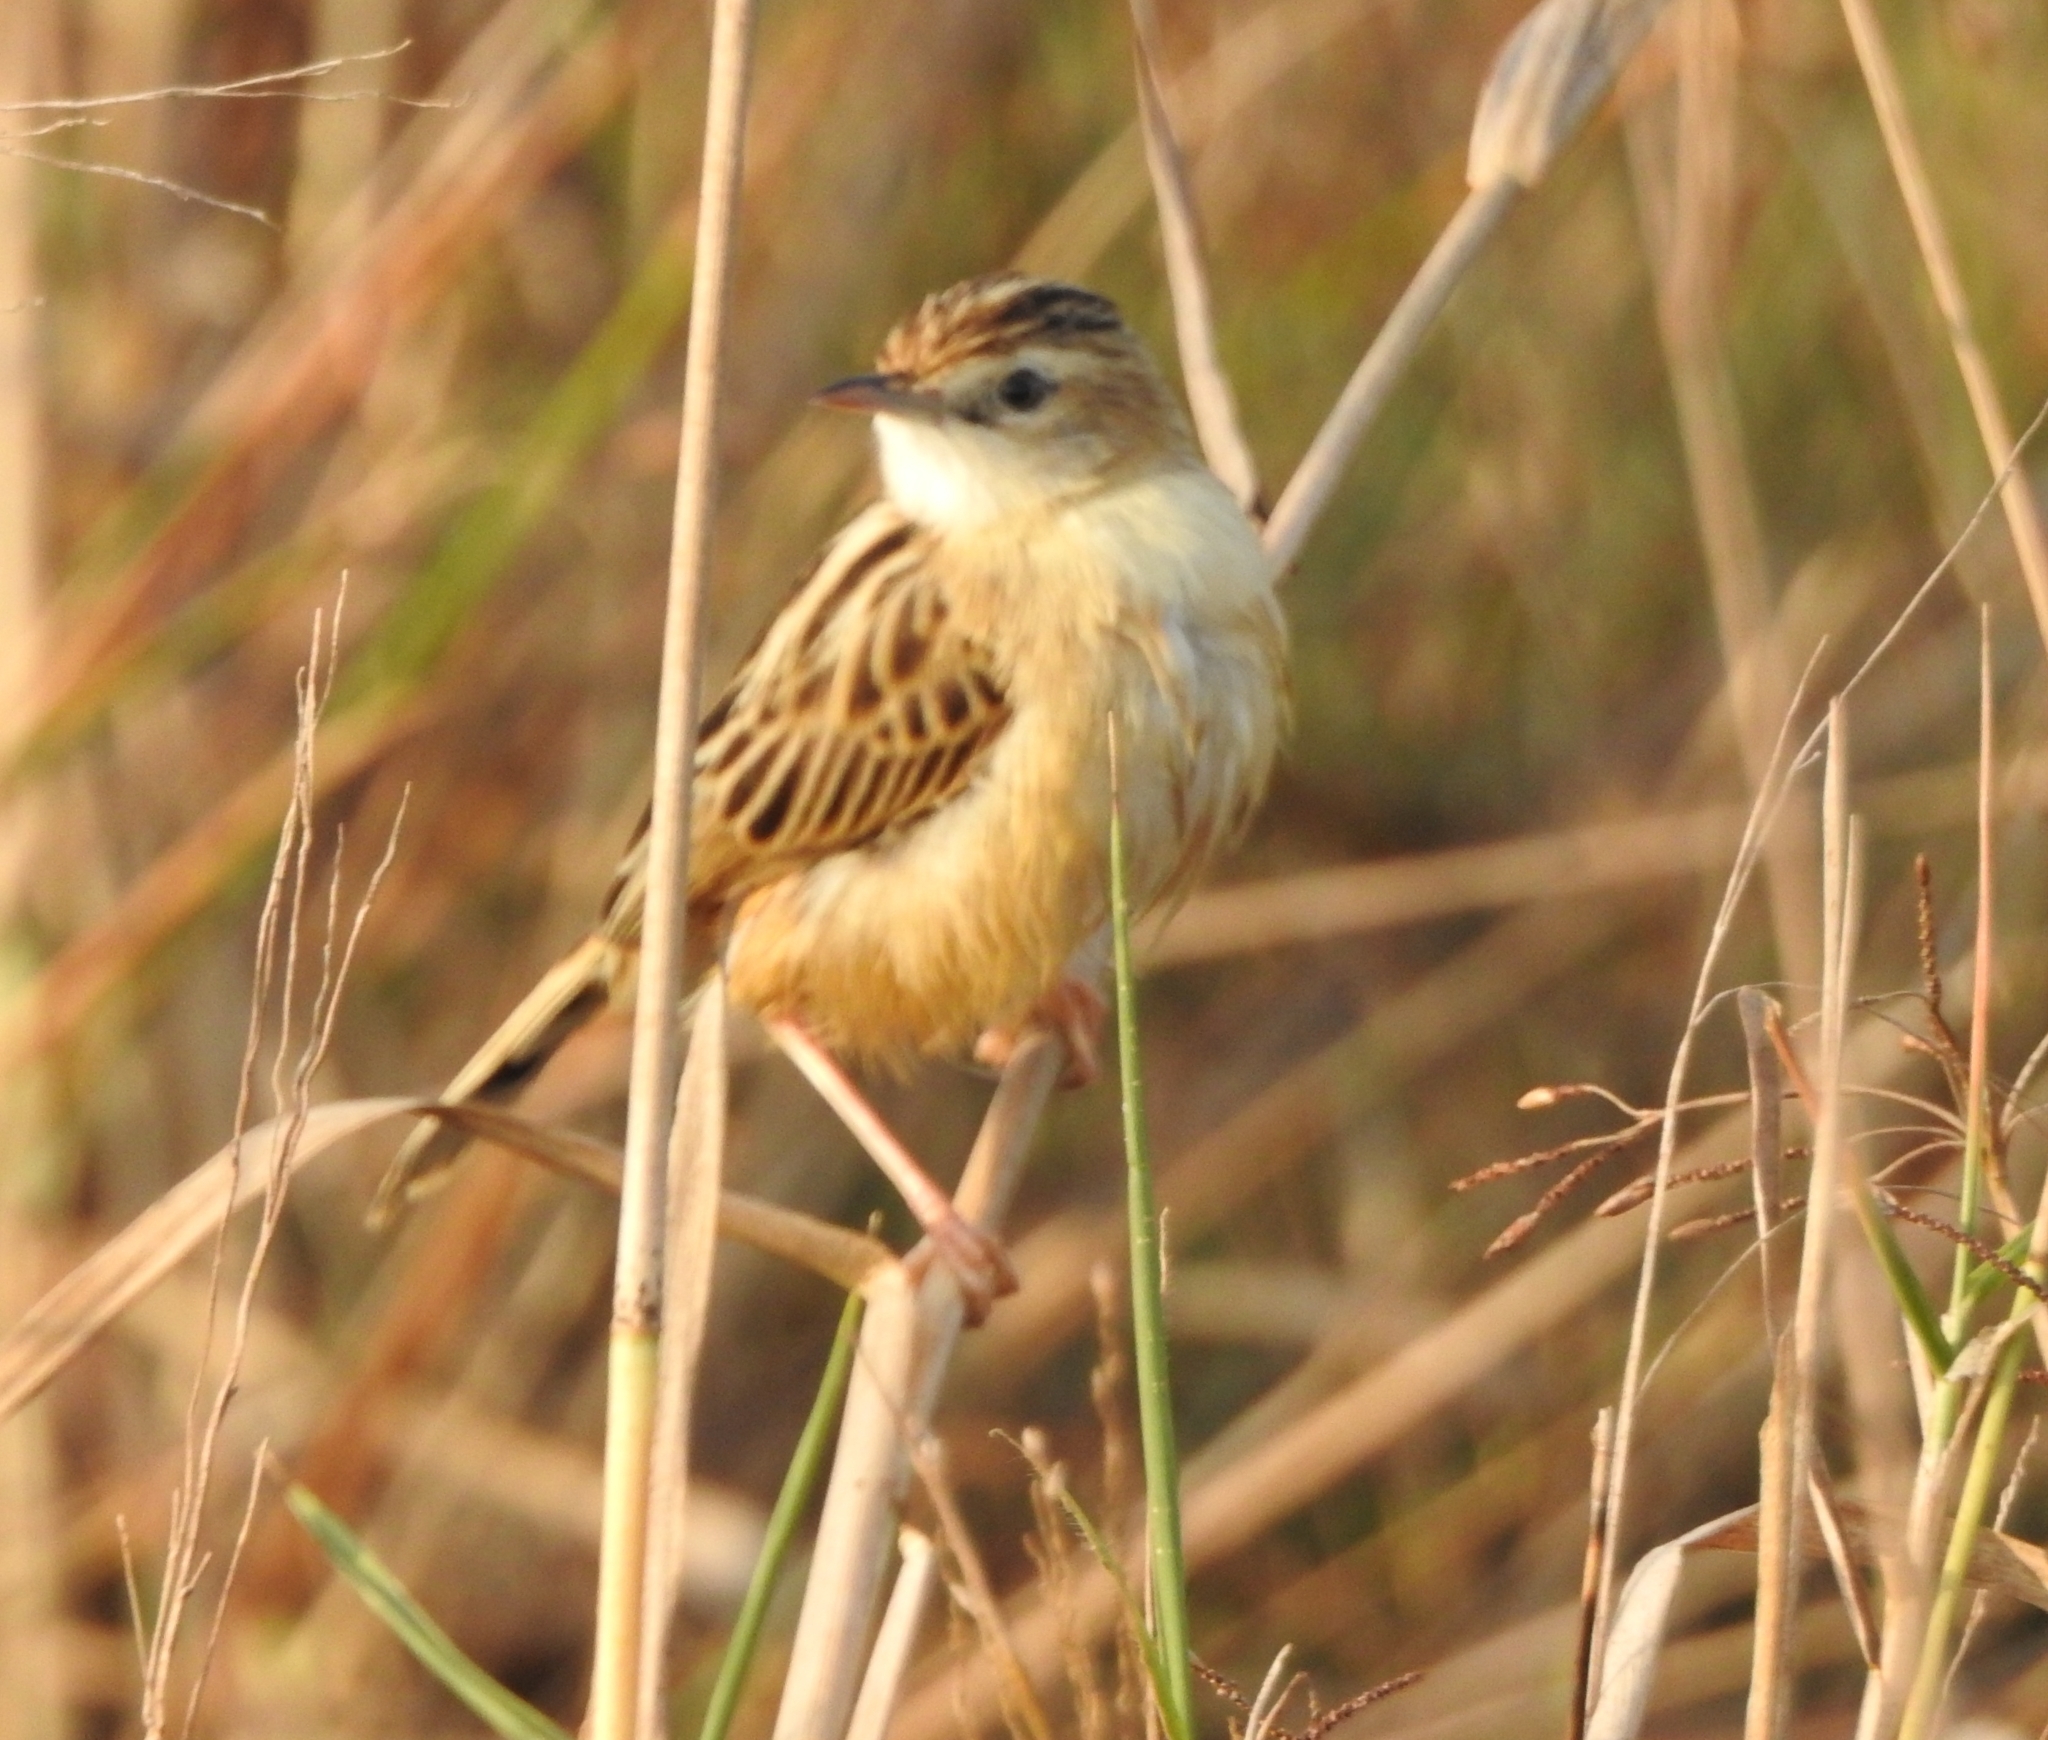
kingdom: Animalia
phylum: Chordata
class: Aves
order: Passeriformes
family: Cisticolidae
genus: Cisticola
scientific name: Cisticola juncidis
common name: Zitting cisticola
